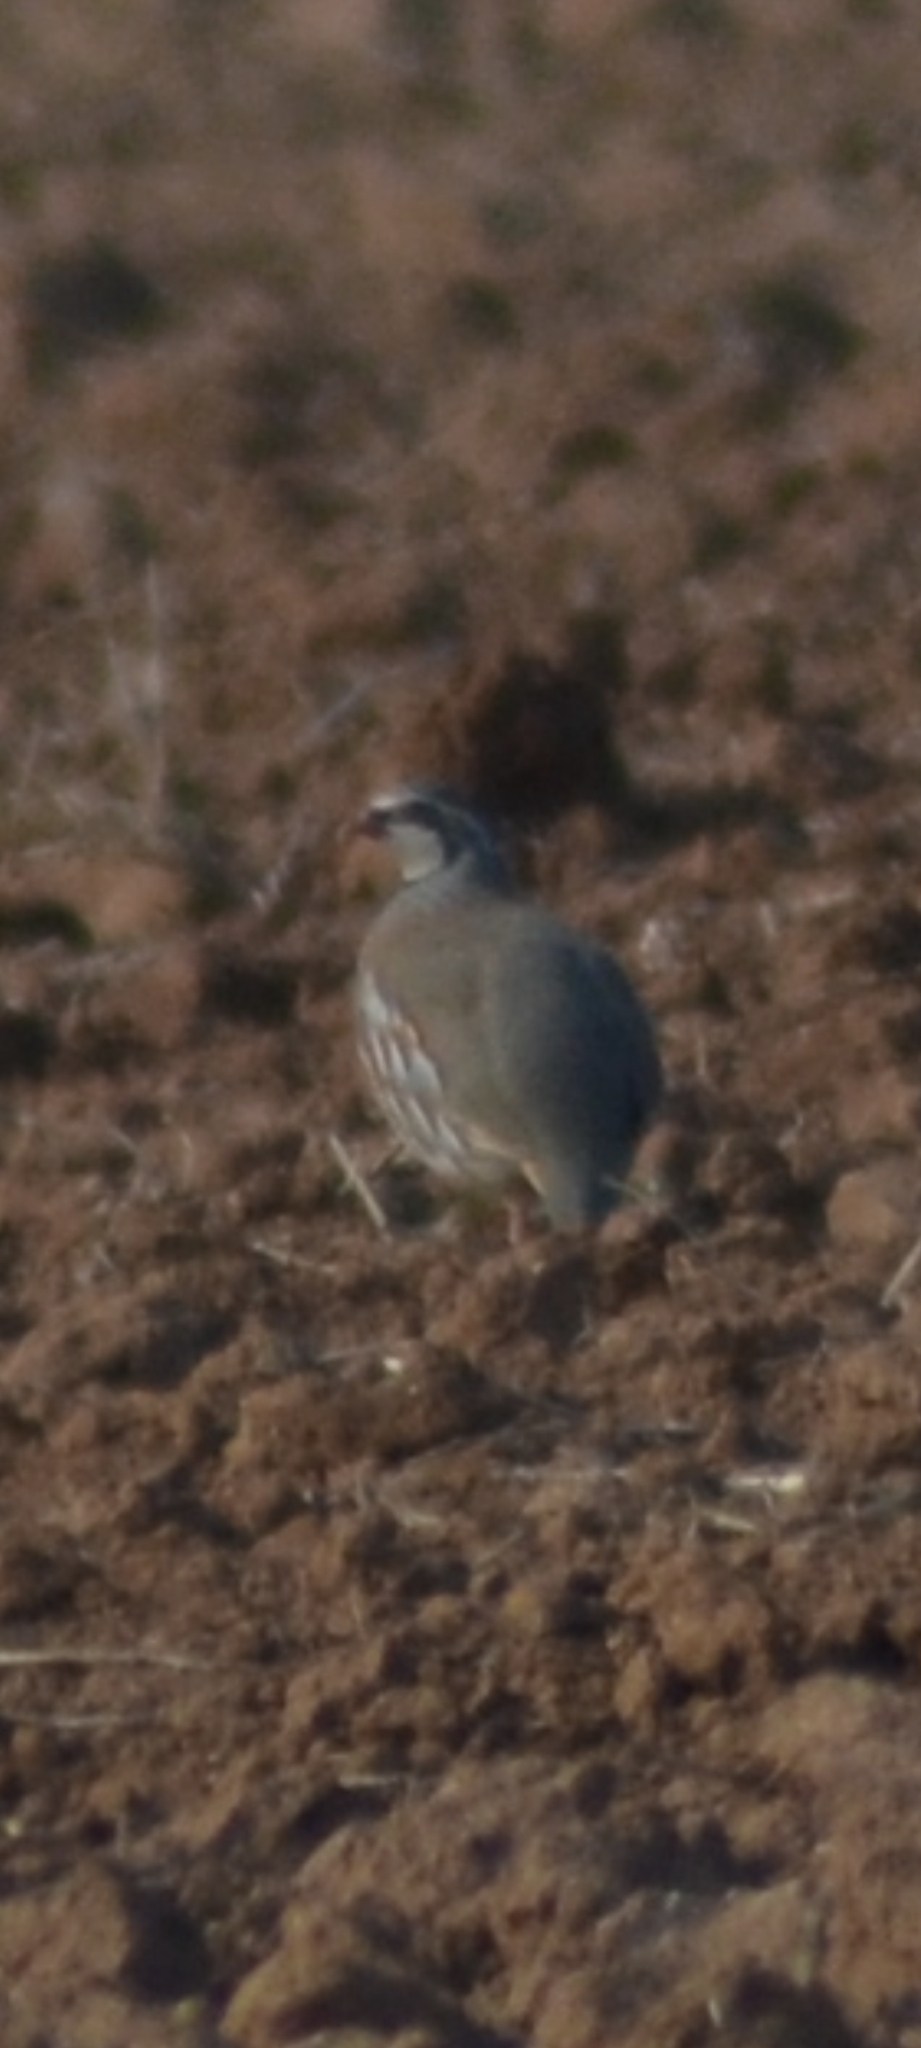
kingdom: Animalia
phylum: Chordata
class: Aves
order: Galliformes
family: Phasianidae
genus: Alectoris
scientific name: Alectoris rufa
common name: Red-legged partridge
